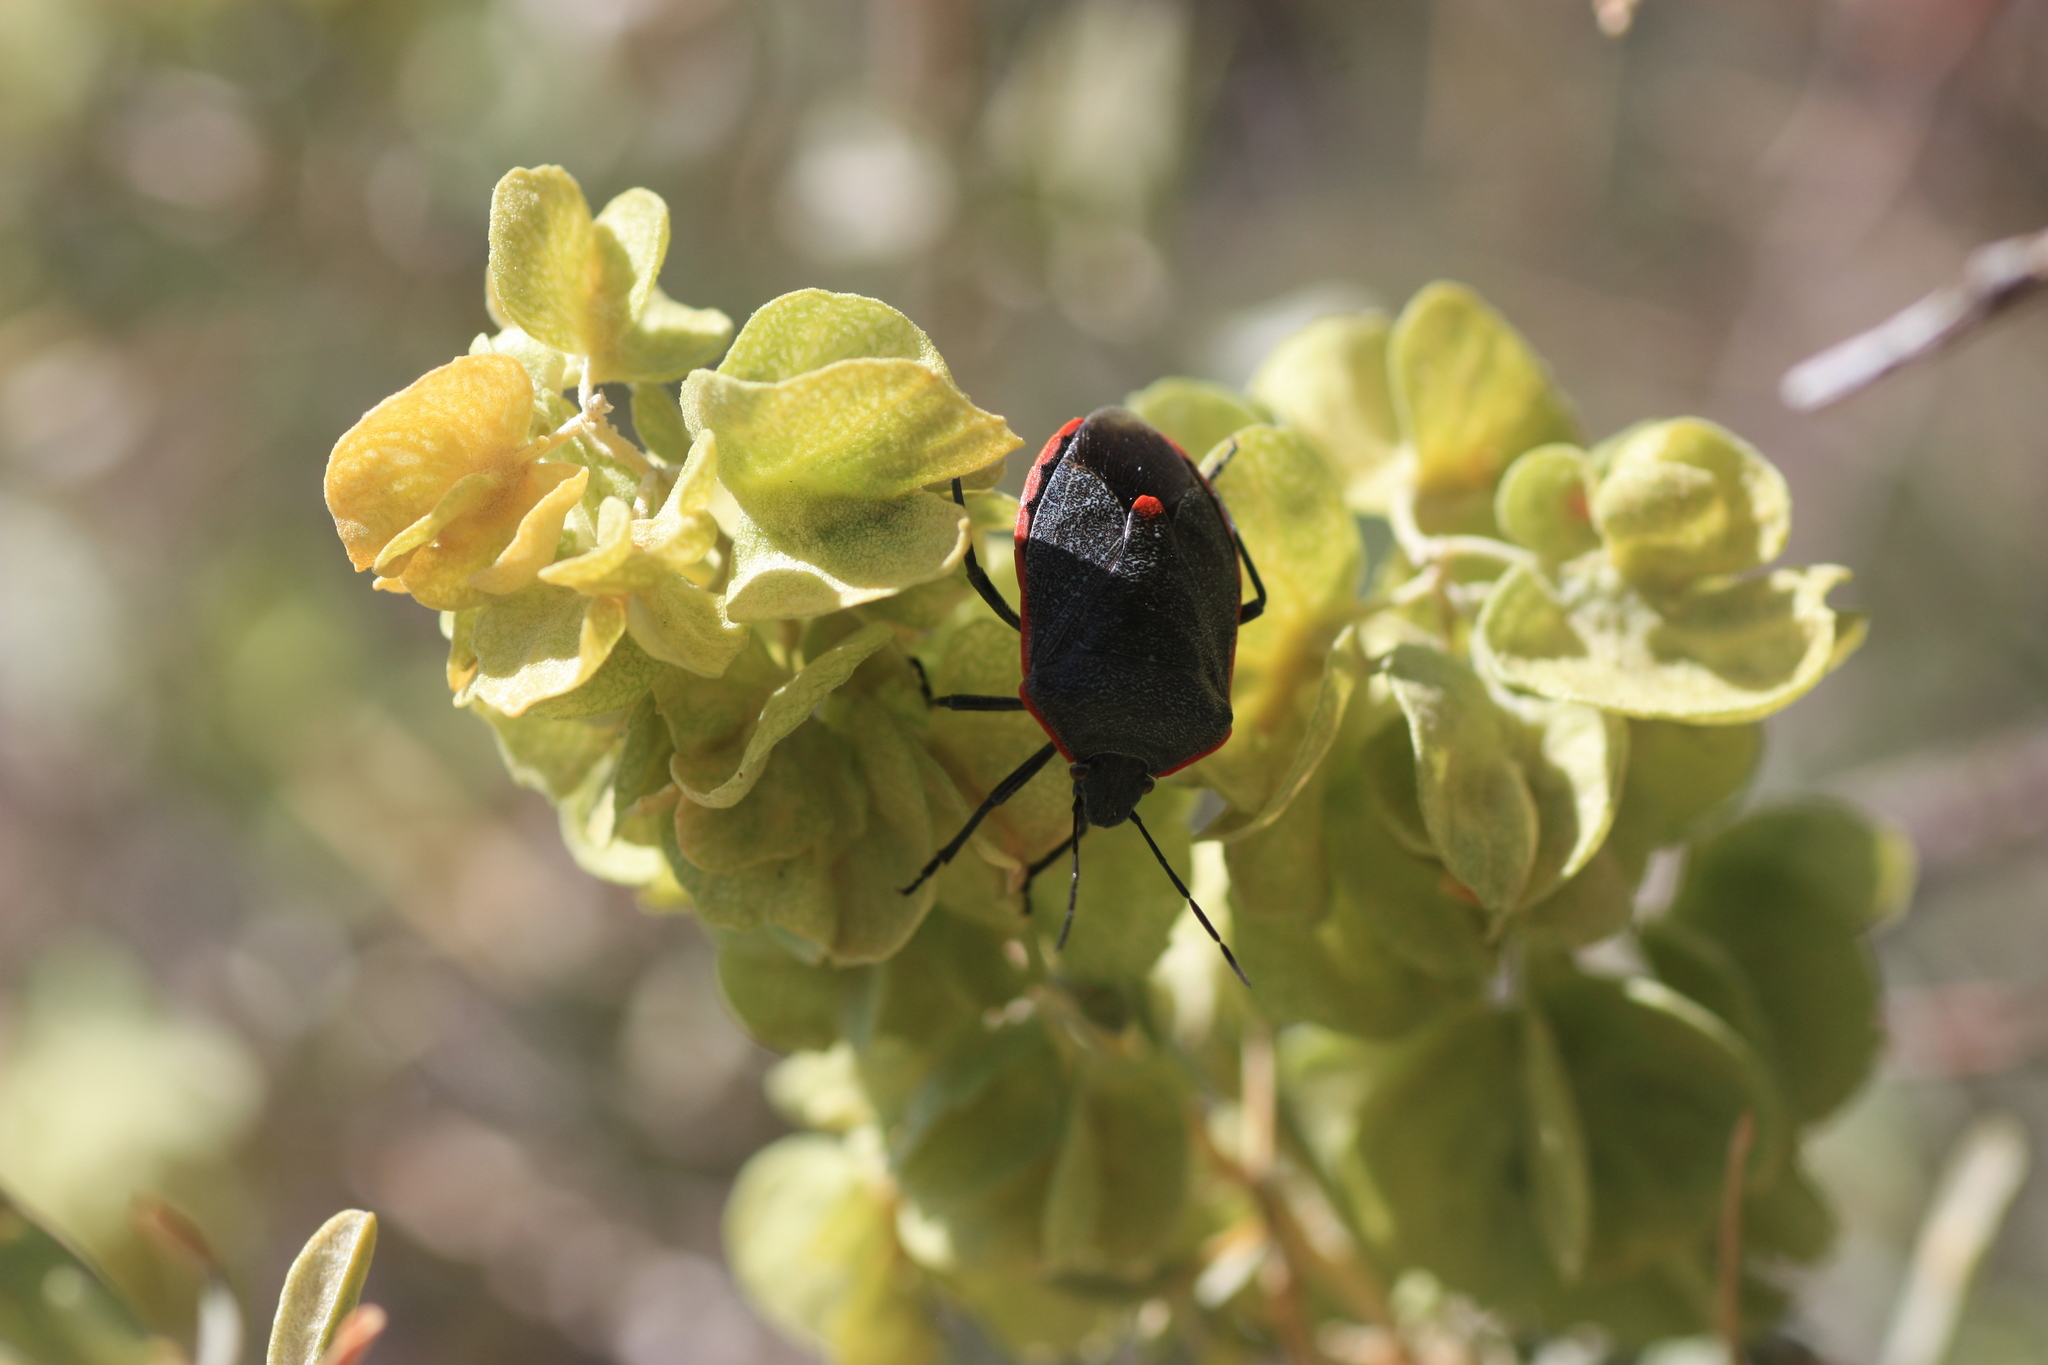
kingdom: Animalia
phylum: Arthropoda
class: Insecta
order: Hemiptera
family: Pentatomidae
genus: Chlorochroa
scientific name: Chlorochroa ligata
